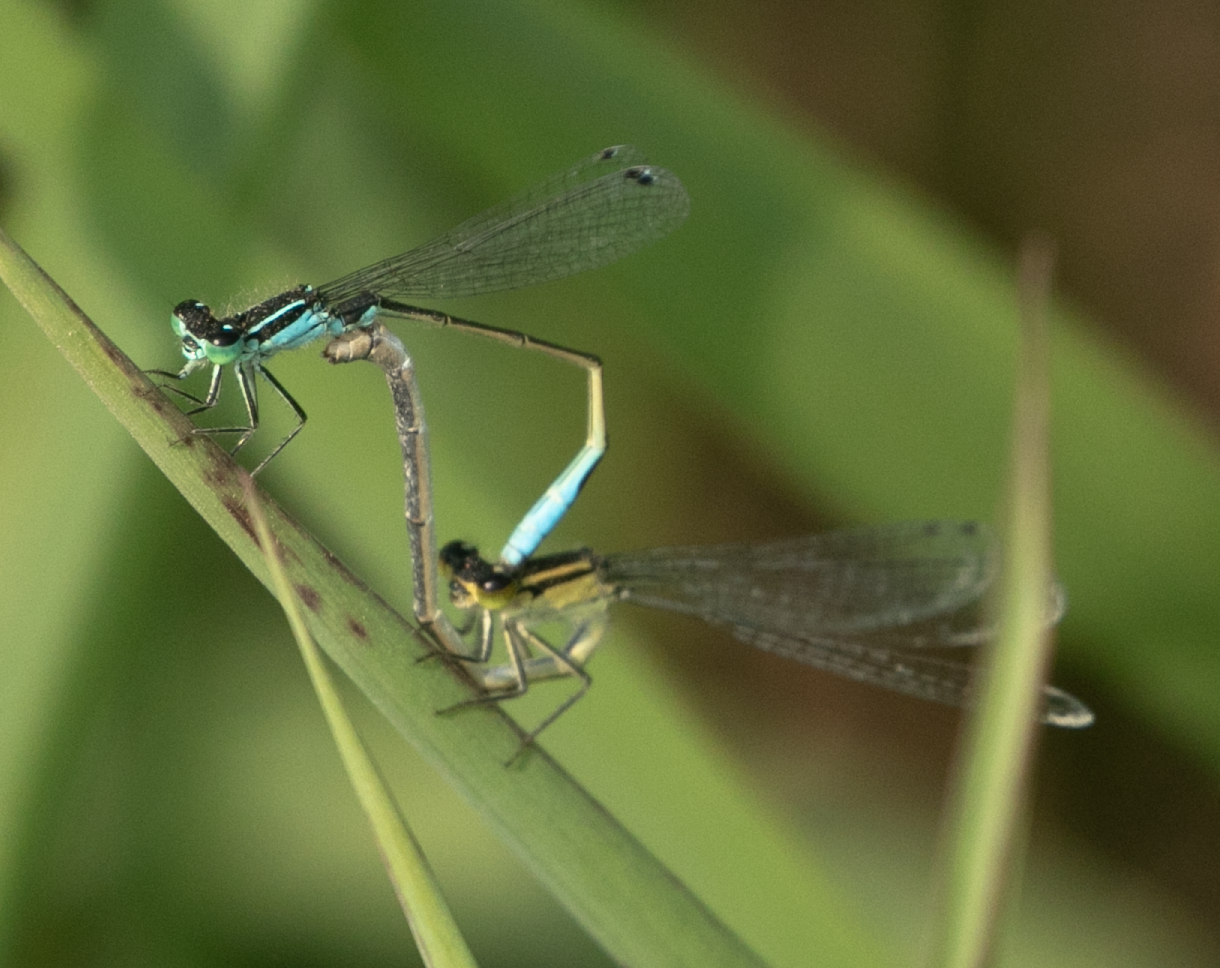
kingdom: Animalia
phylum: Arthropoda
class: Insecta
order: Odonata
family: Coenagrionidae
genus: Ischnura
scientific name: Ischnura elegans
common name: Blue-tailed damselfly
